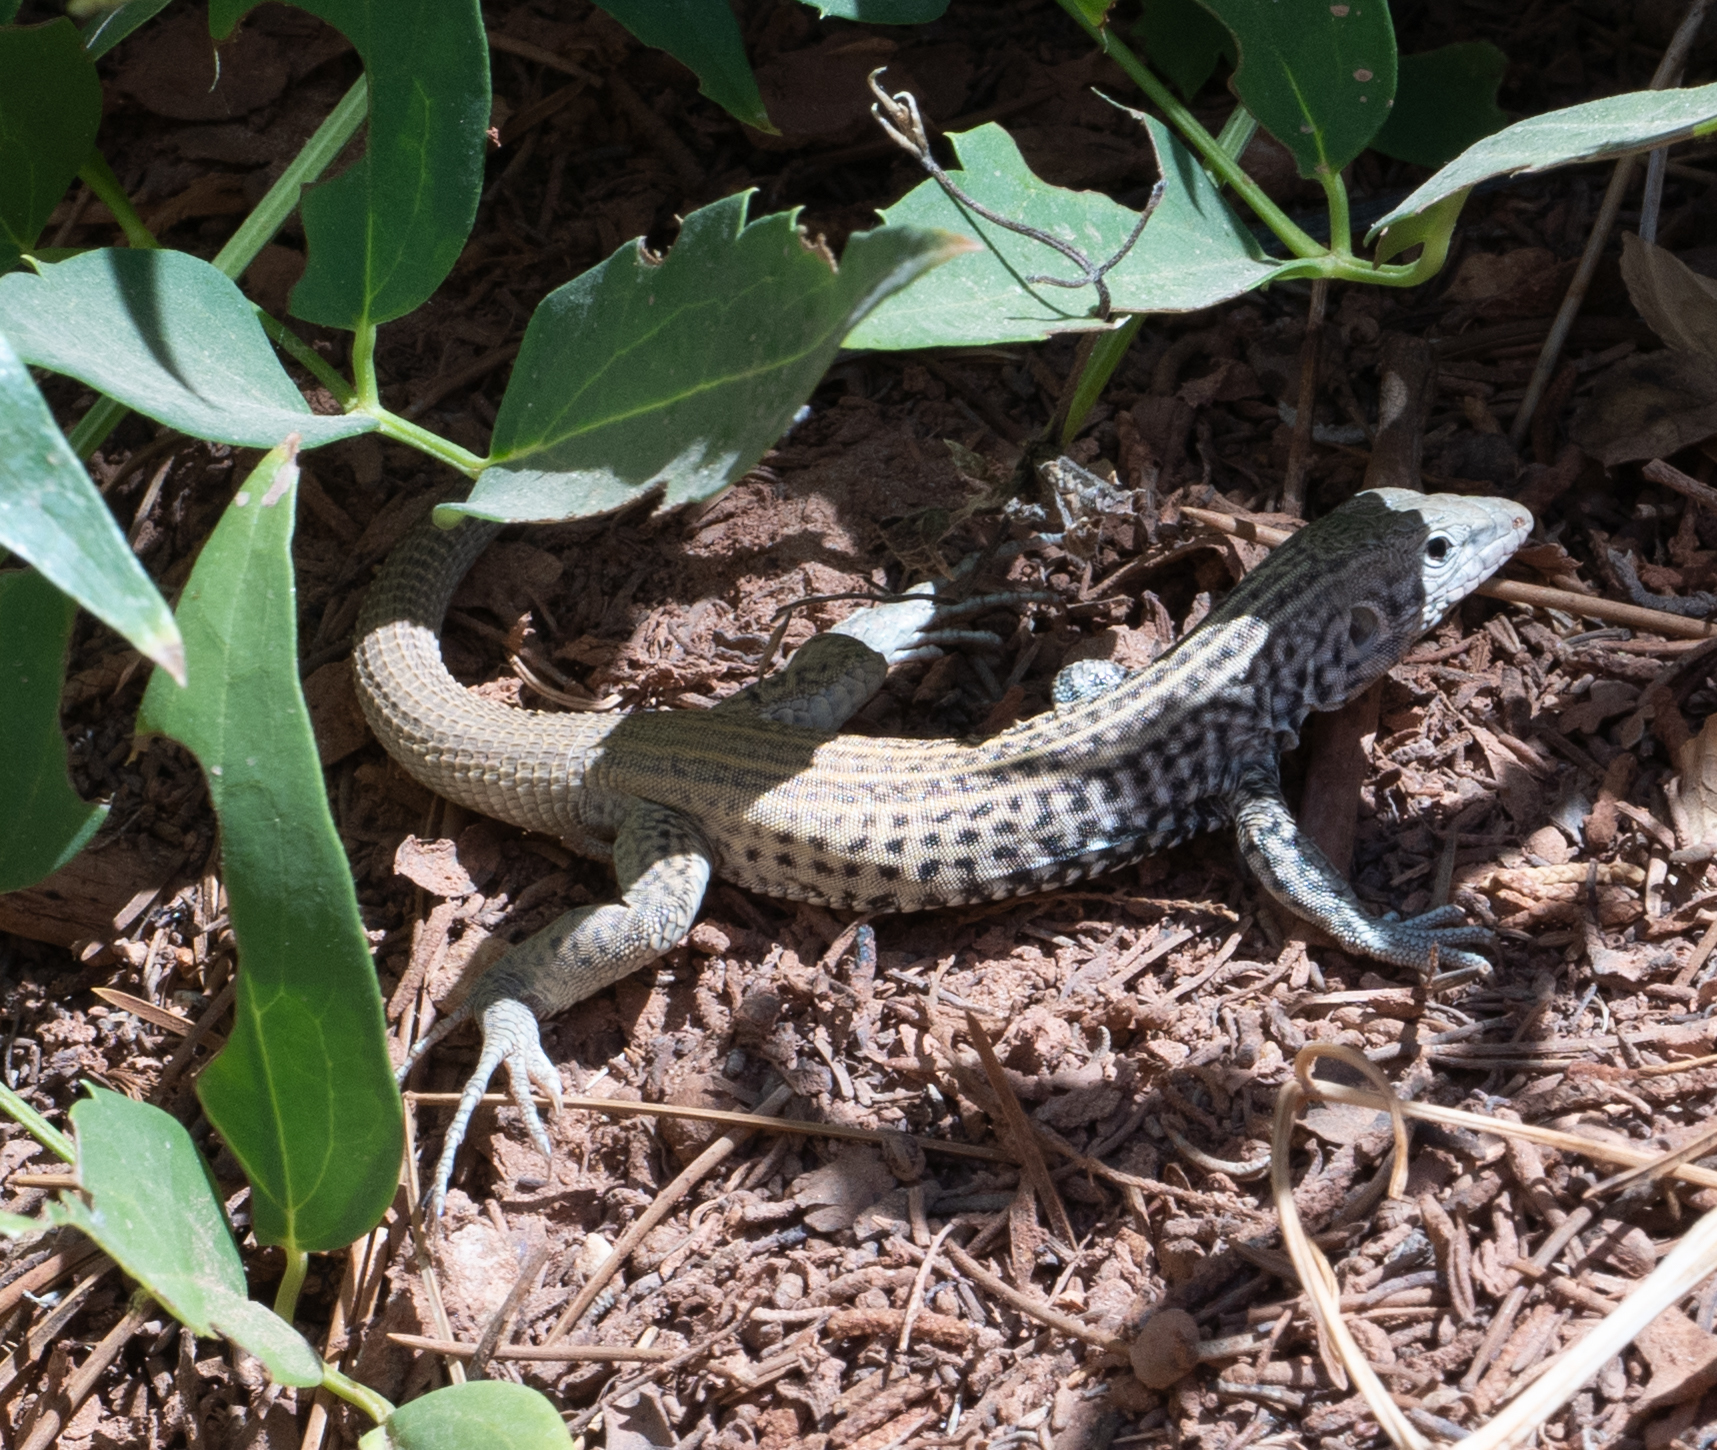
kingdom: Animalia
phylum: Chordata
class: Squamata
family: Teiidae
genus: Aspidoscelis
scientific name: Aspidoscelis tigris
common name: Tiger whiptail
